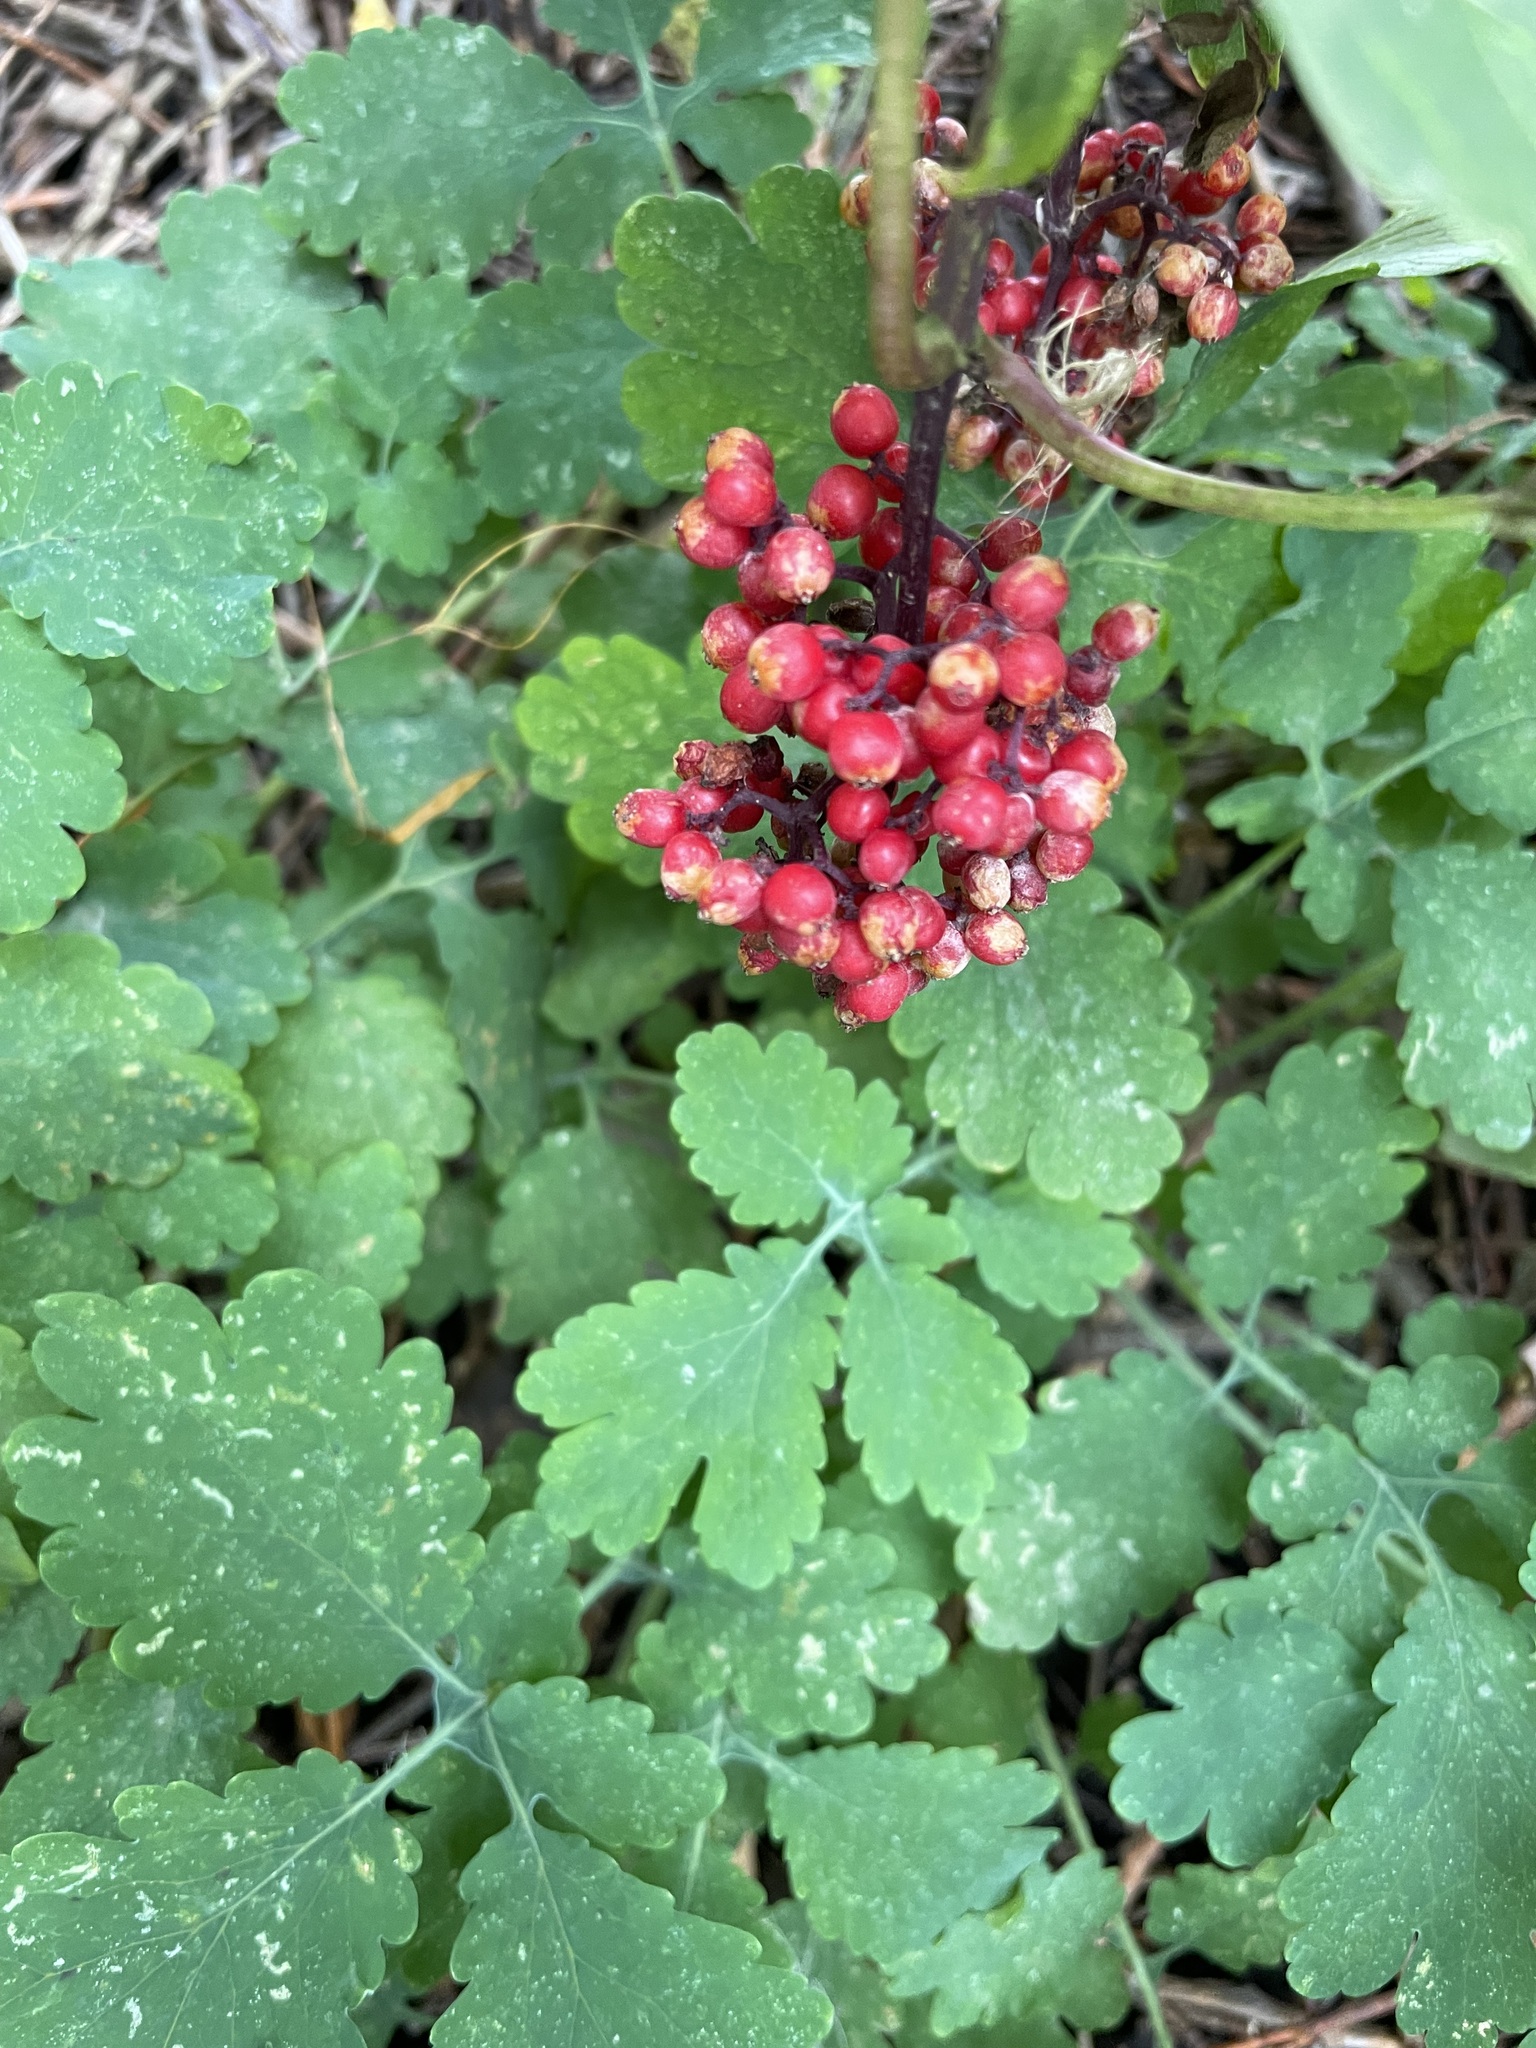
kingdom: Plantae
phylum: Tracheophyta
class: Magnoliopsida
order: Dipsacales
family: Viburnaceae
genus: Sambucus
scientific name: Sambucus racemosa
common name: Red-berried elder
